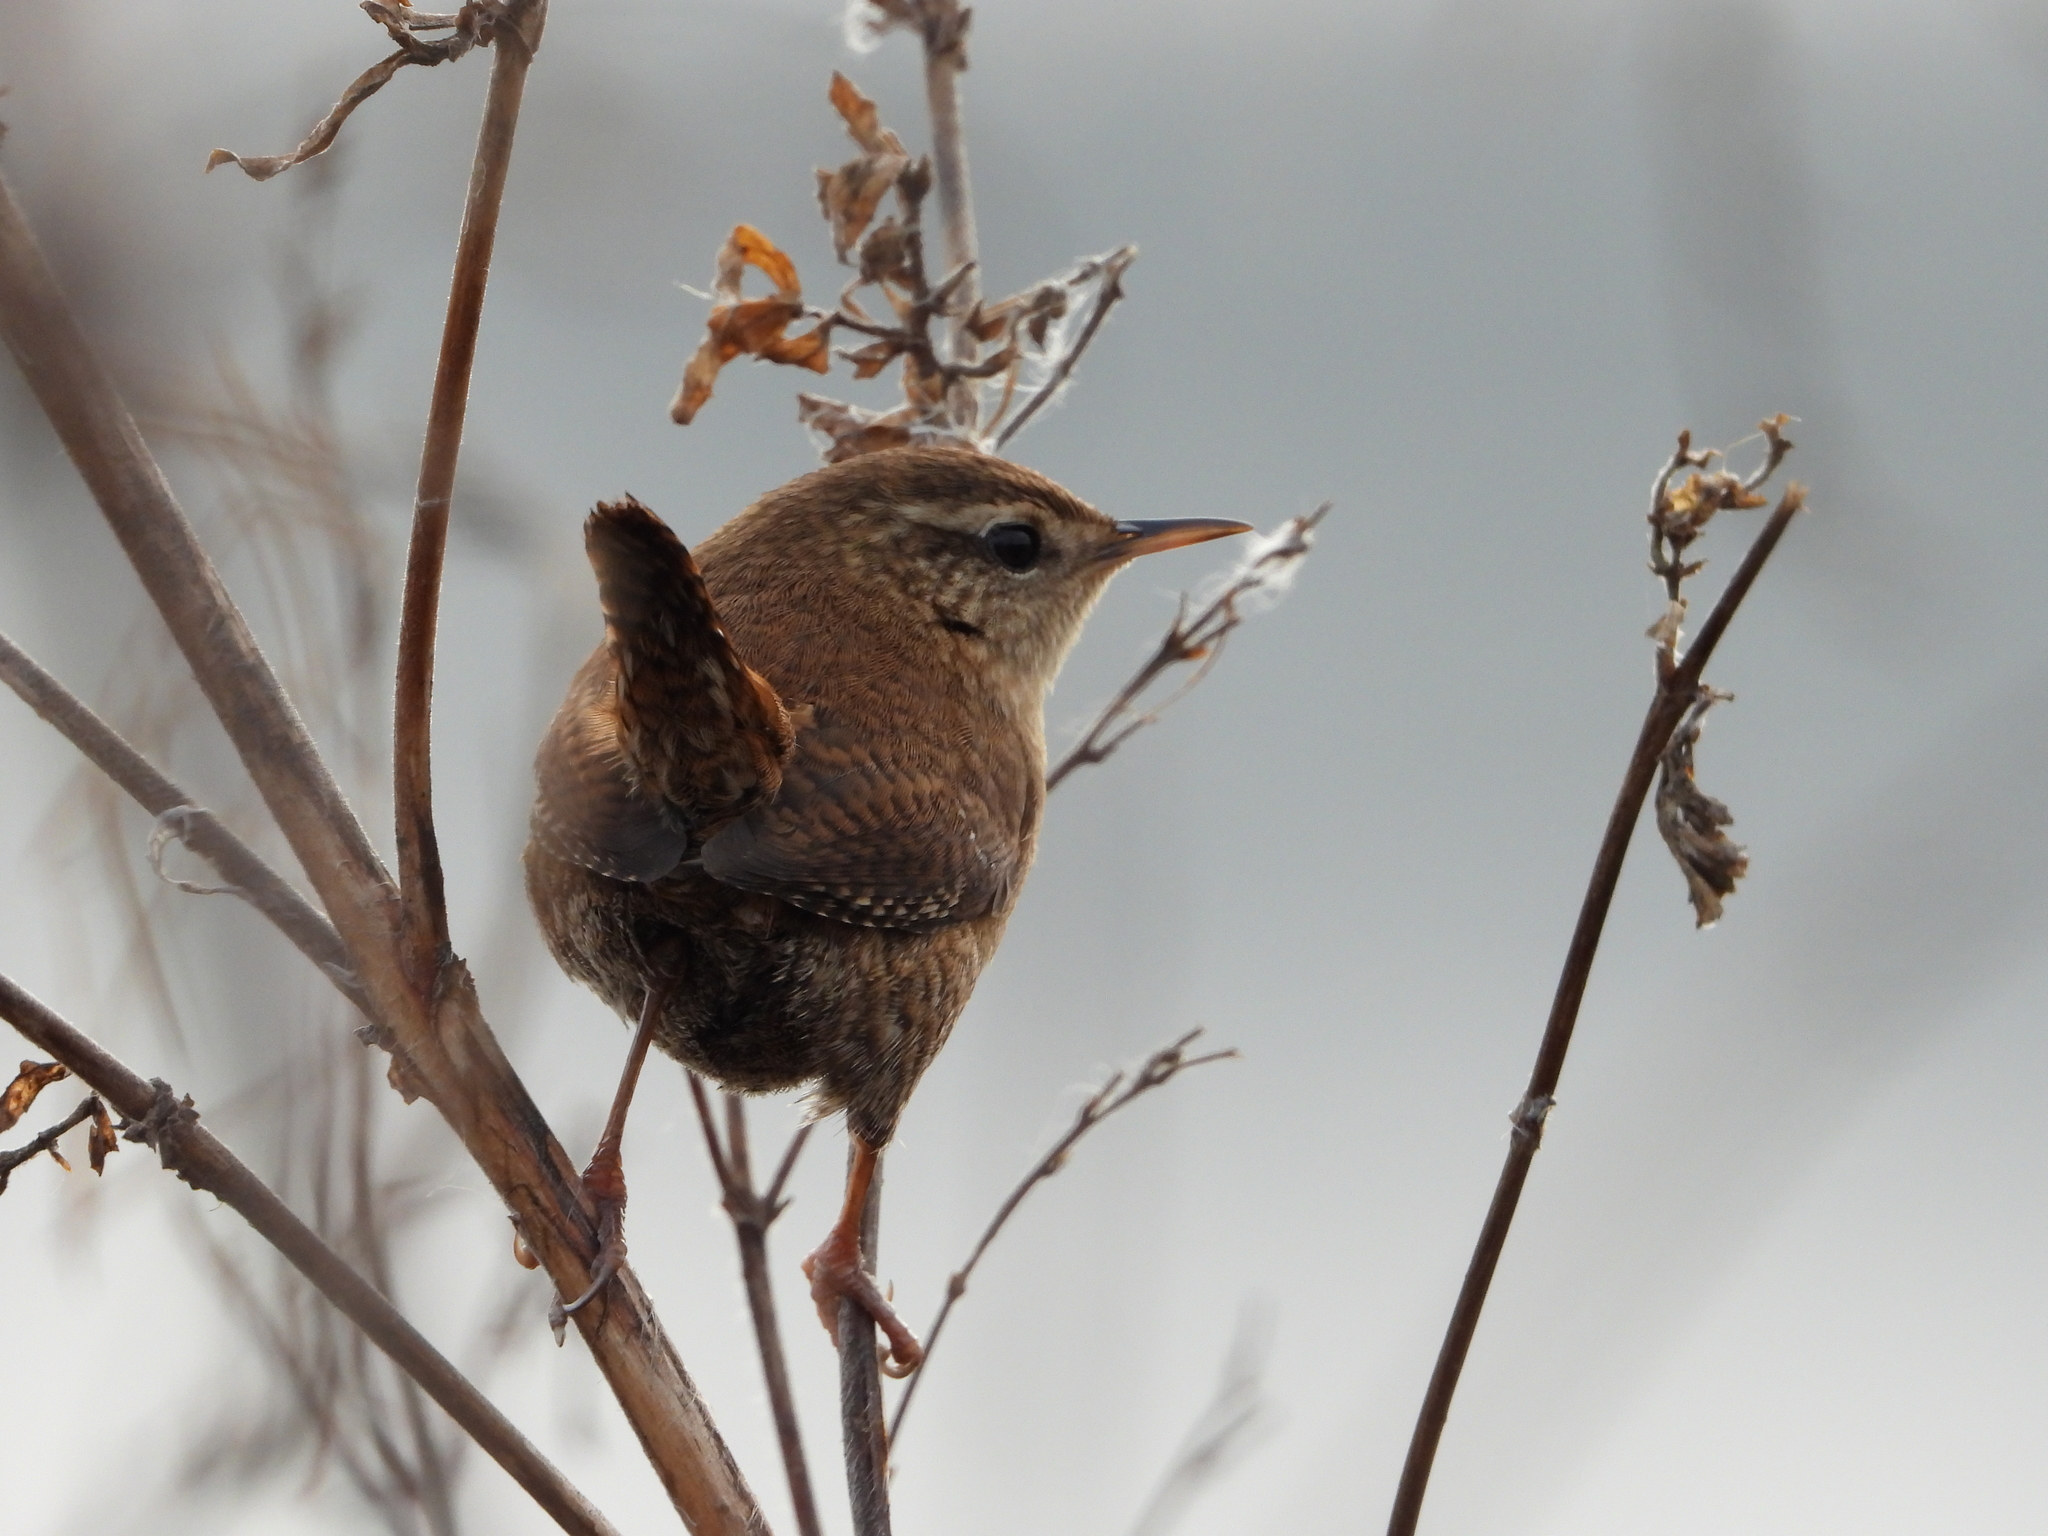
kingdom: Animalia
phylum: Chordata
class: Aves
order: Passeriformes
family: Troglodytidae
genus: Troglodytes
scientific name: Troglodytes troglodytes
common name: Eurasian wren
